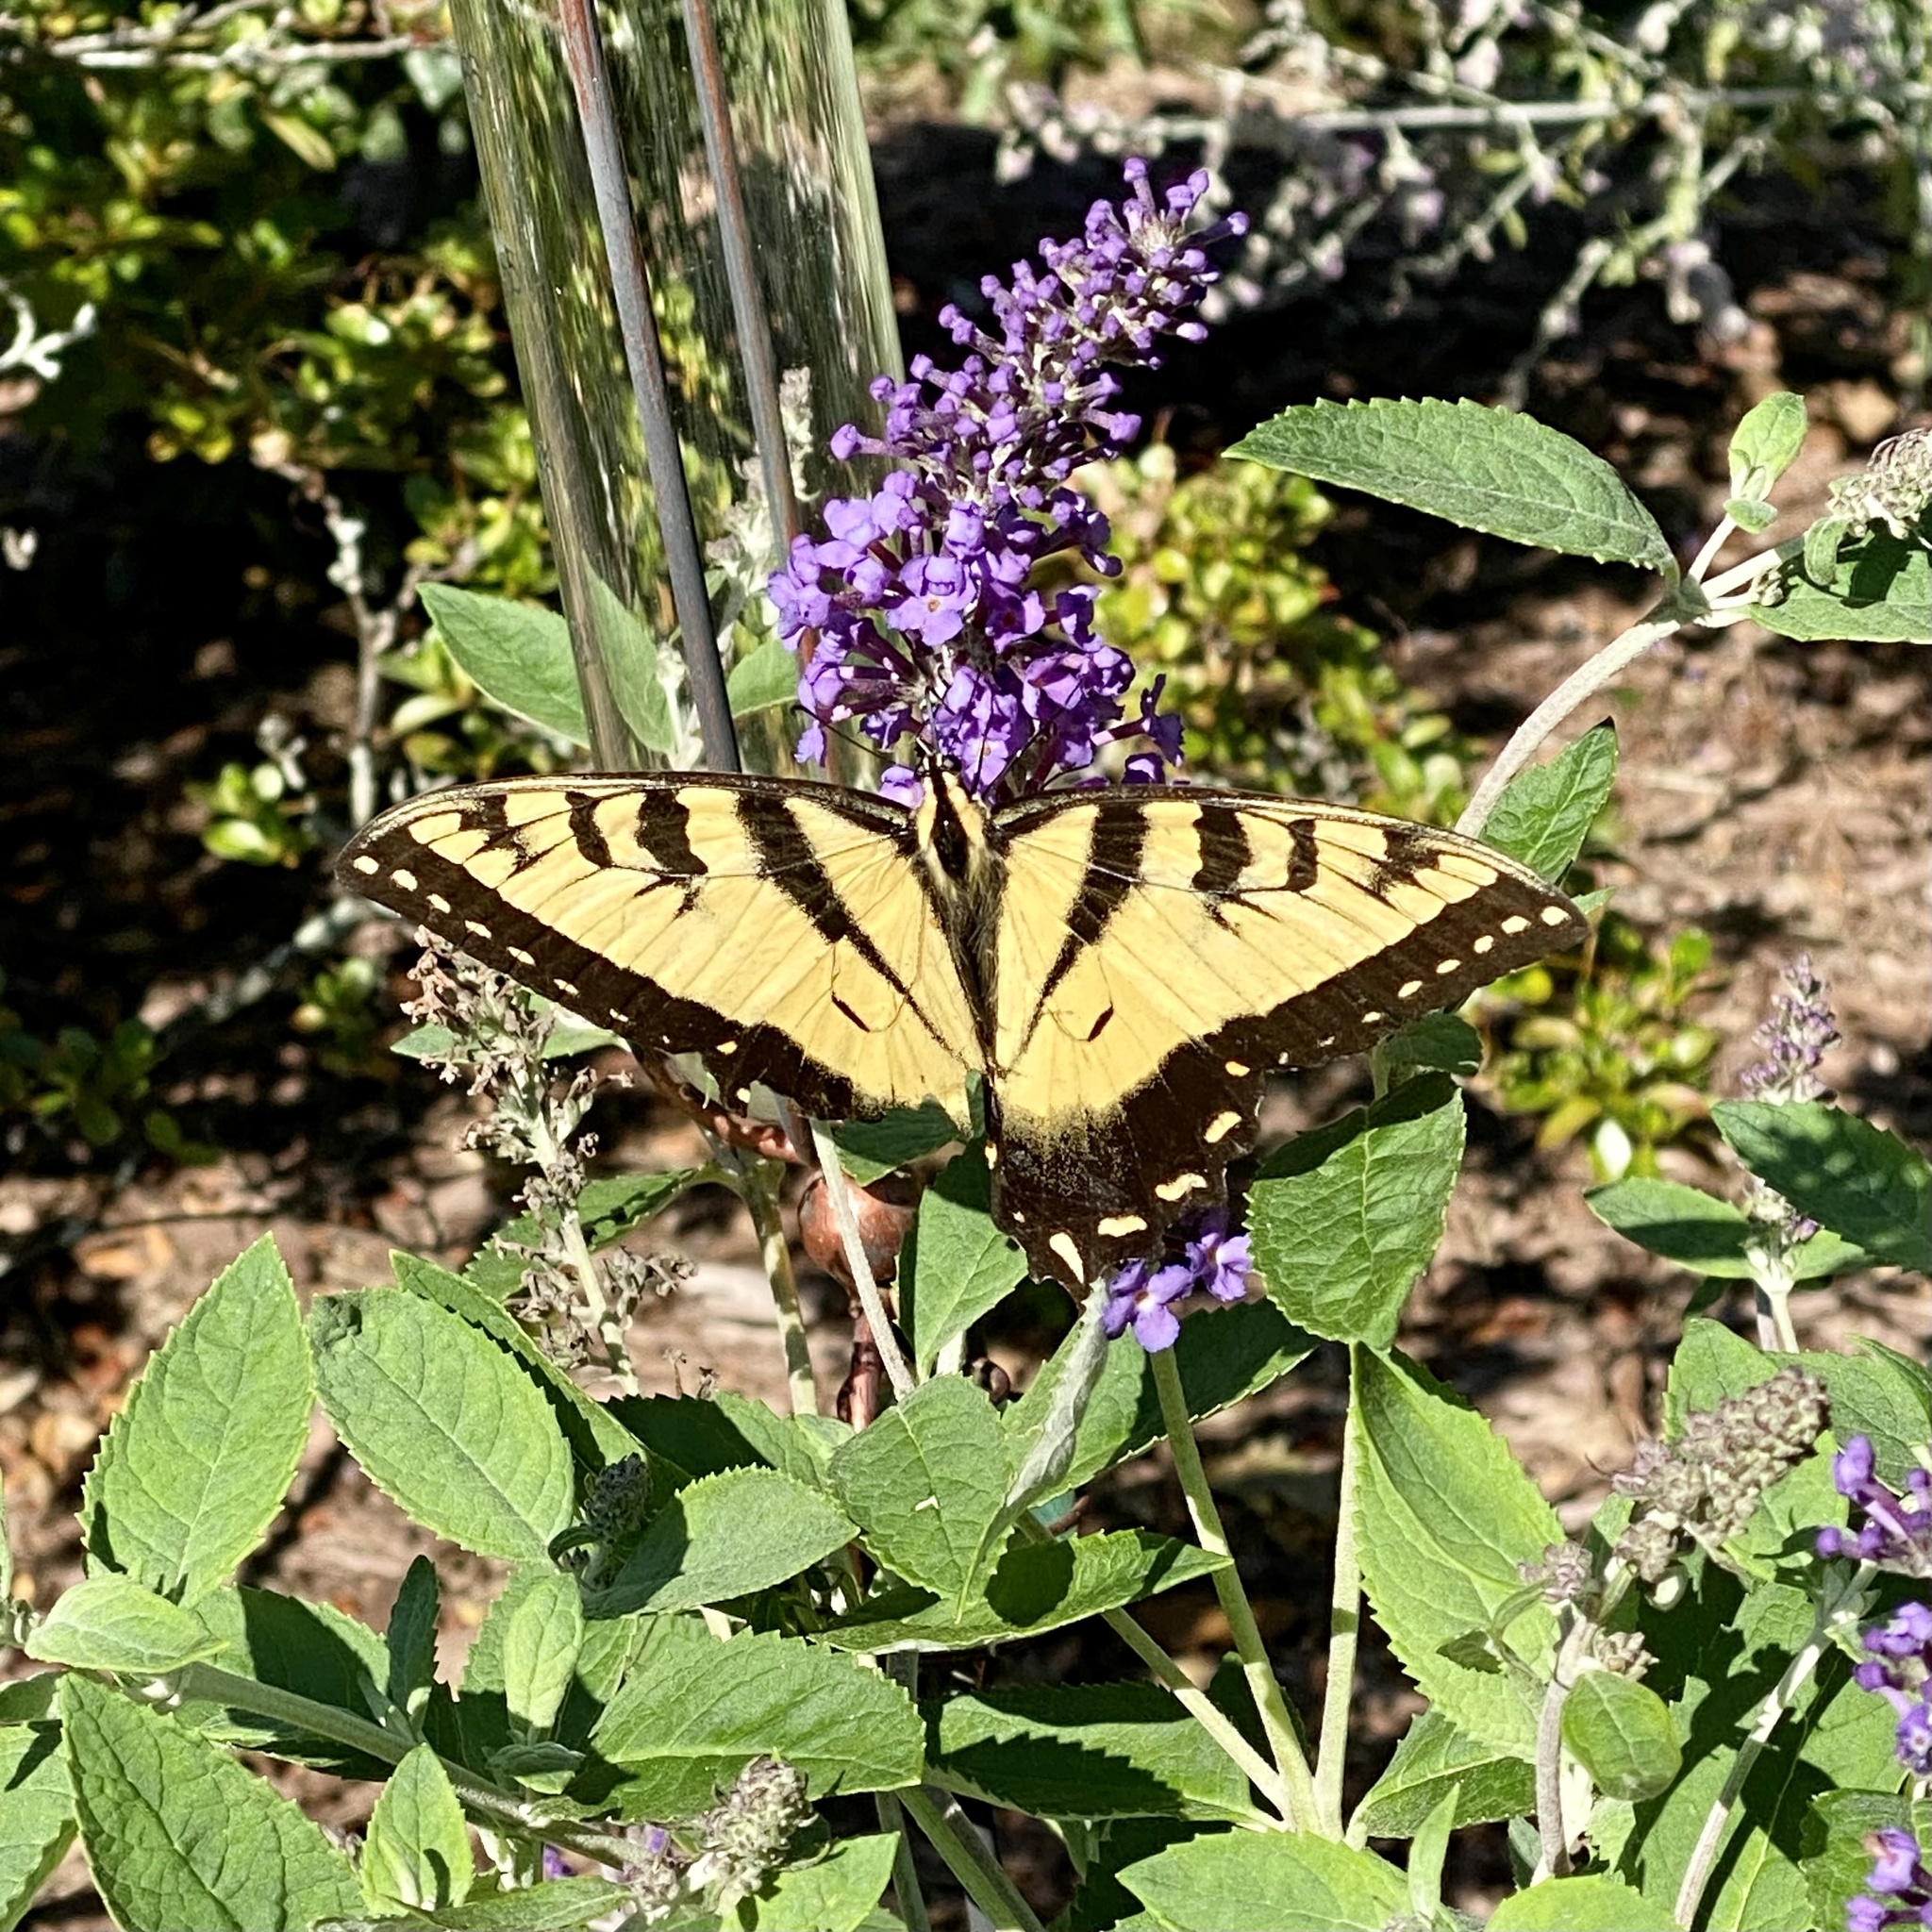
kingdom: Animalia
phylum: Arthropoda
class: Insecta
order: Lepidoptera
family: Papilionidae
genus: Papilio
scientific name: Papilio glaucus
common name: Tiger swallowtail
